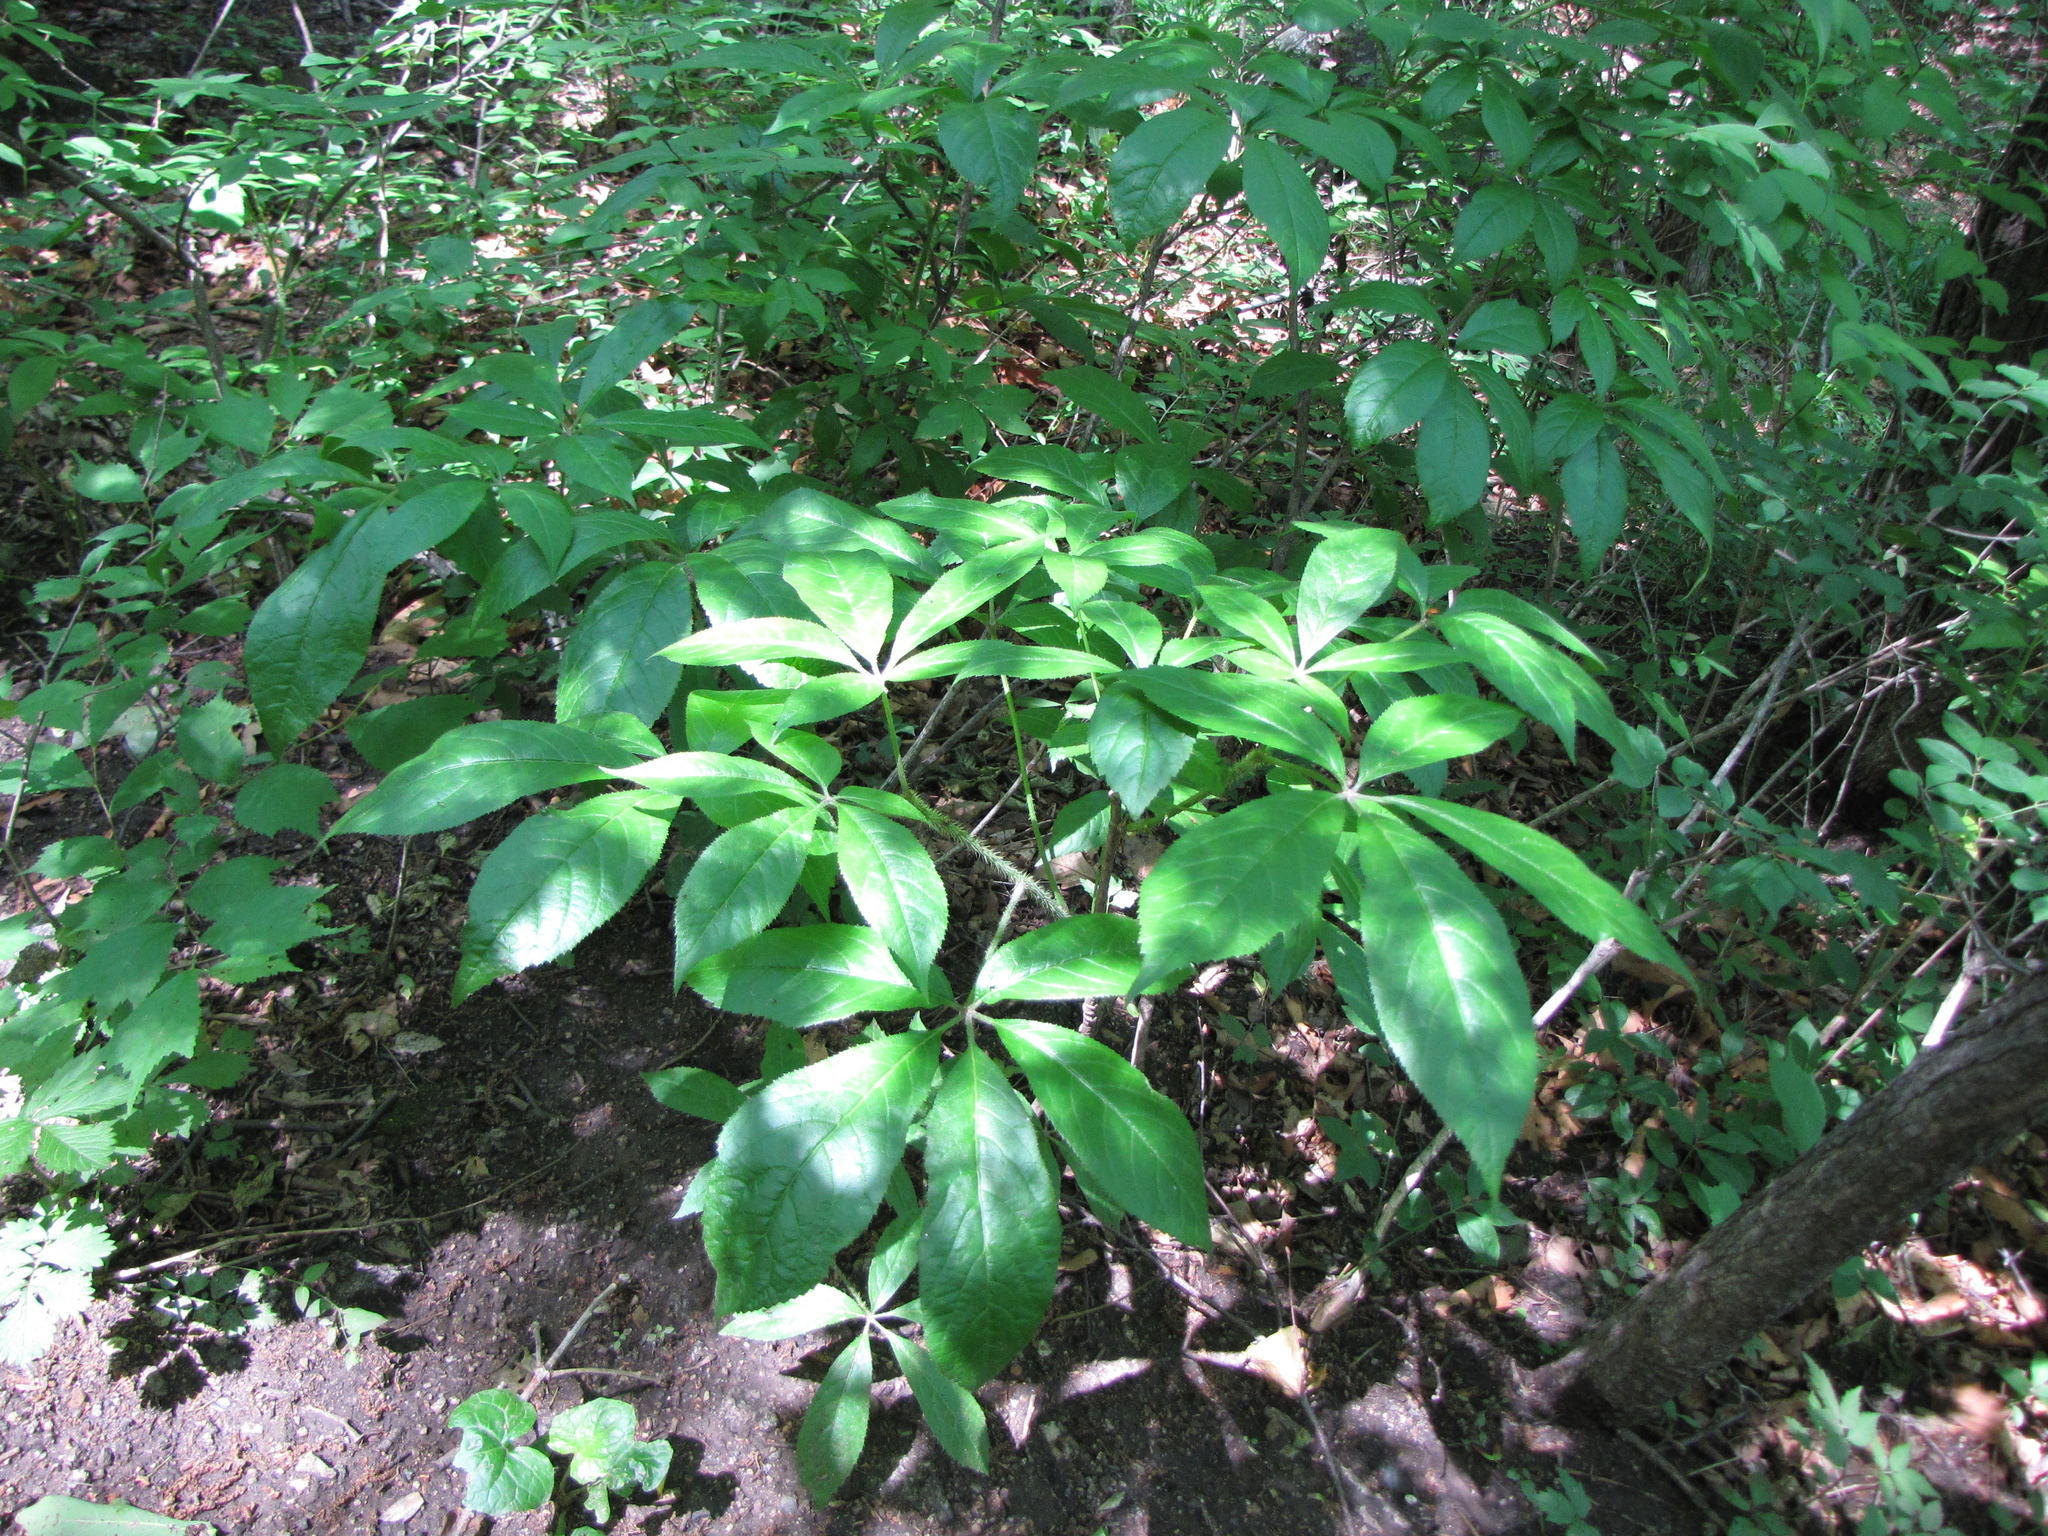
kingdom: Plantae
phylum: Tracheophyta
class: Magnoliopsida
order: Apiales
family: Araliaceae
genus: Eleutherococcus
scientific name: Eleutherococcus senticosus
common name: Siberian-ginseng
